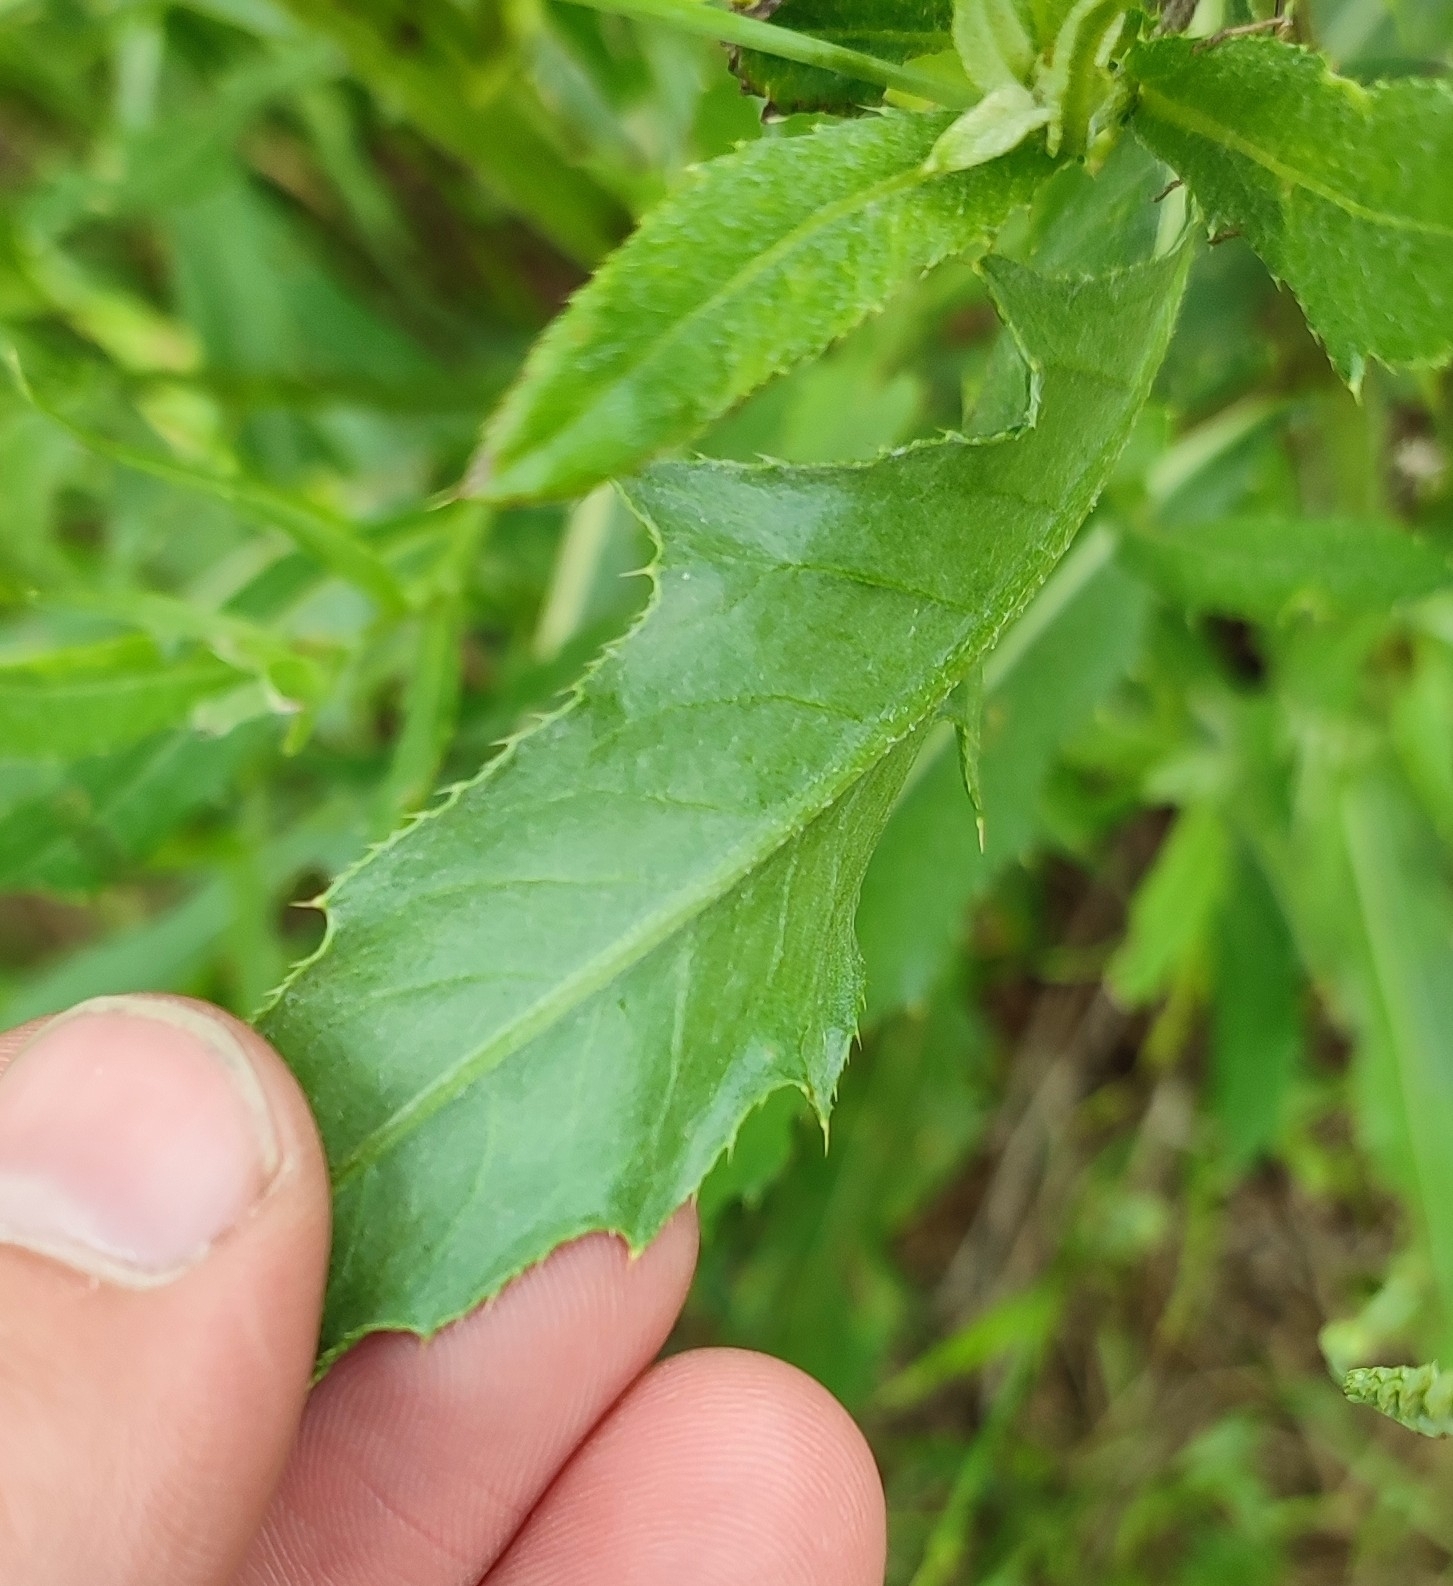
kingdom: Plantae
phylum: Tracheophyta
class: Magnoliopsida
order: Asterales
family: Asteraceae
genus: Cirsium
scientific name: Cirsium arvense
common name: Creeping thistle
